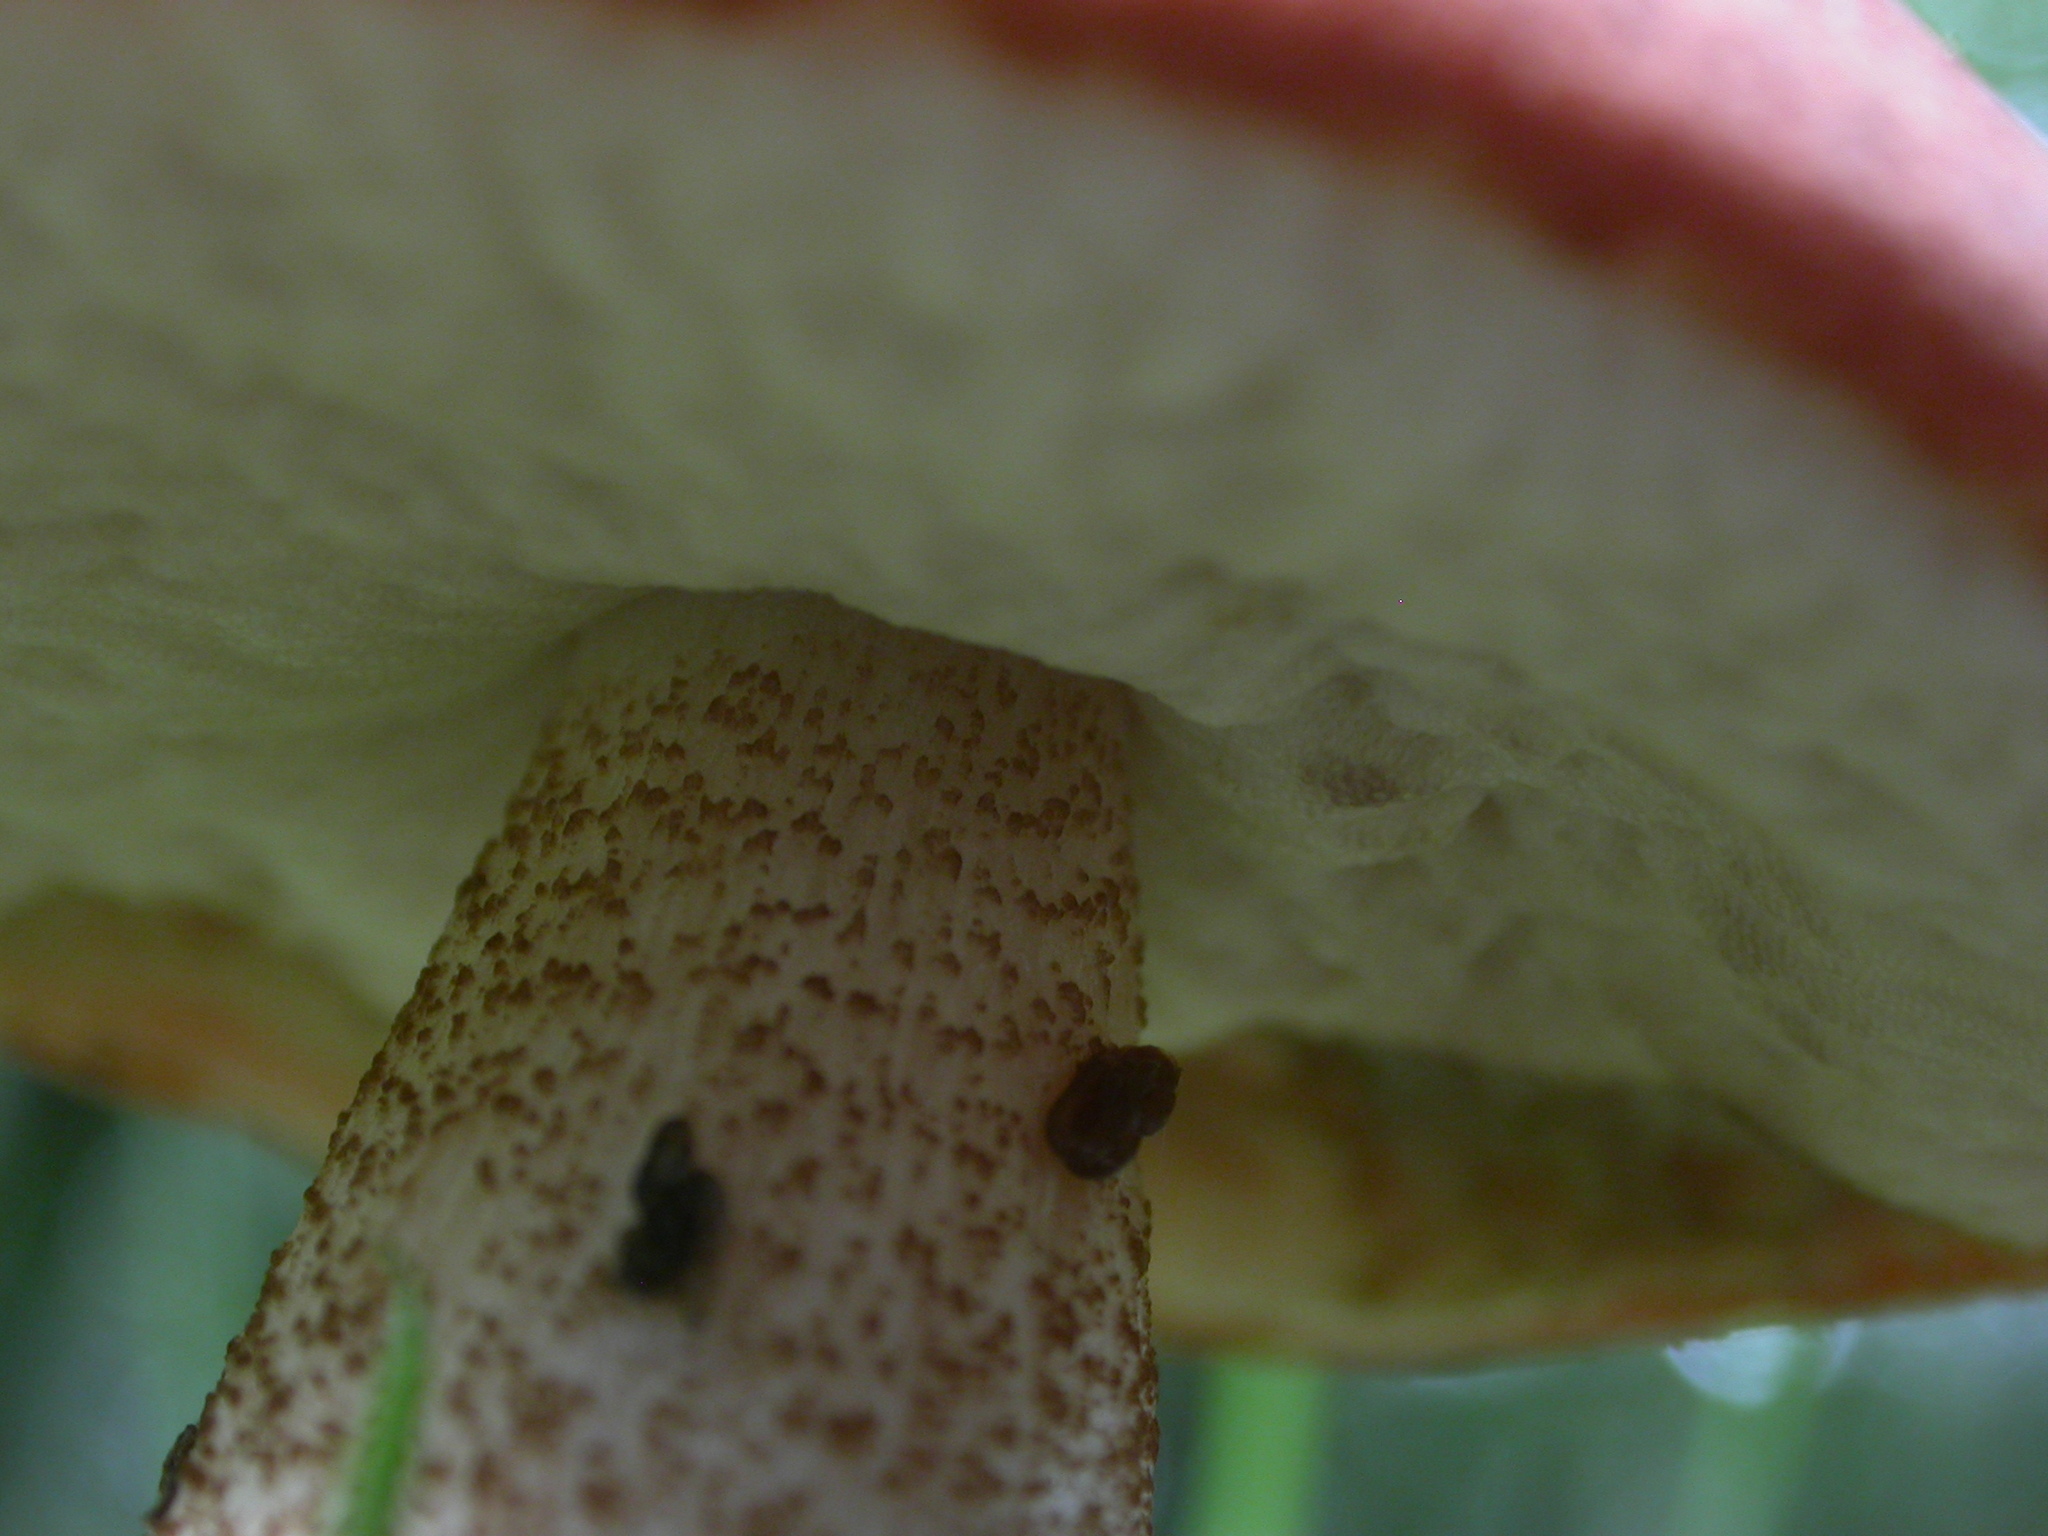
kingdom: Fungi
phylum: Basidiomycota
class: Agaricomycetes
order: Boletales
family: Boletaceae
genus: Leccinum
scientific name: Leccinum aurantiacum
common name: Orange bolete
